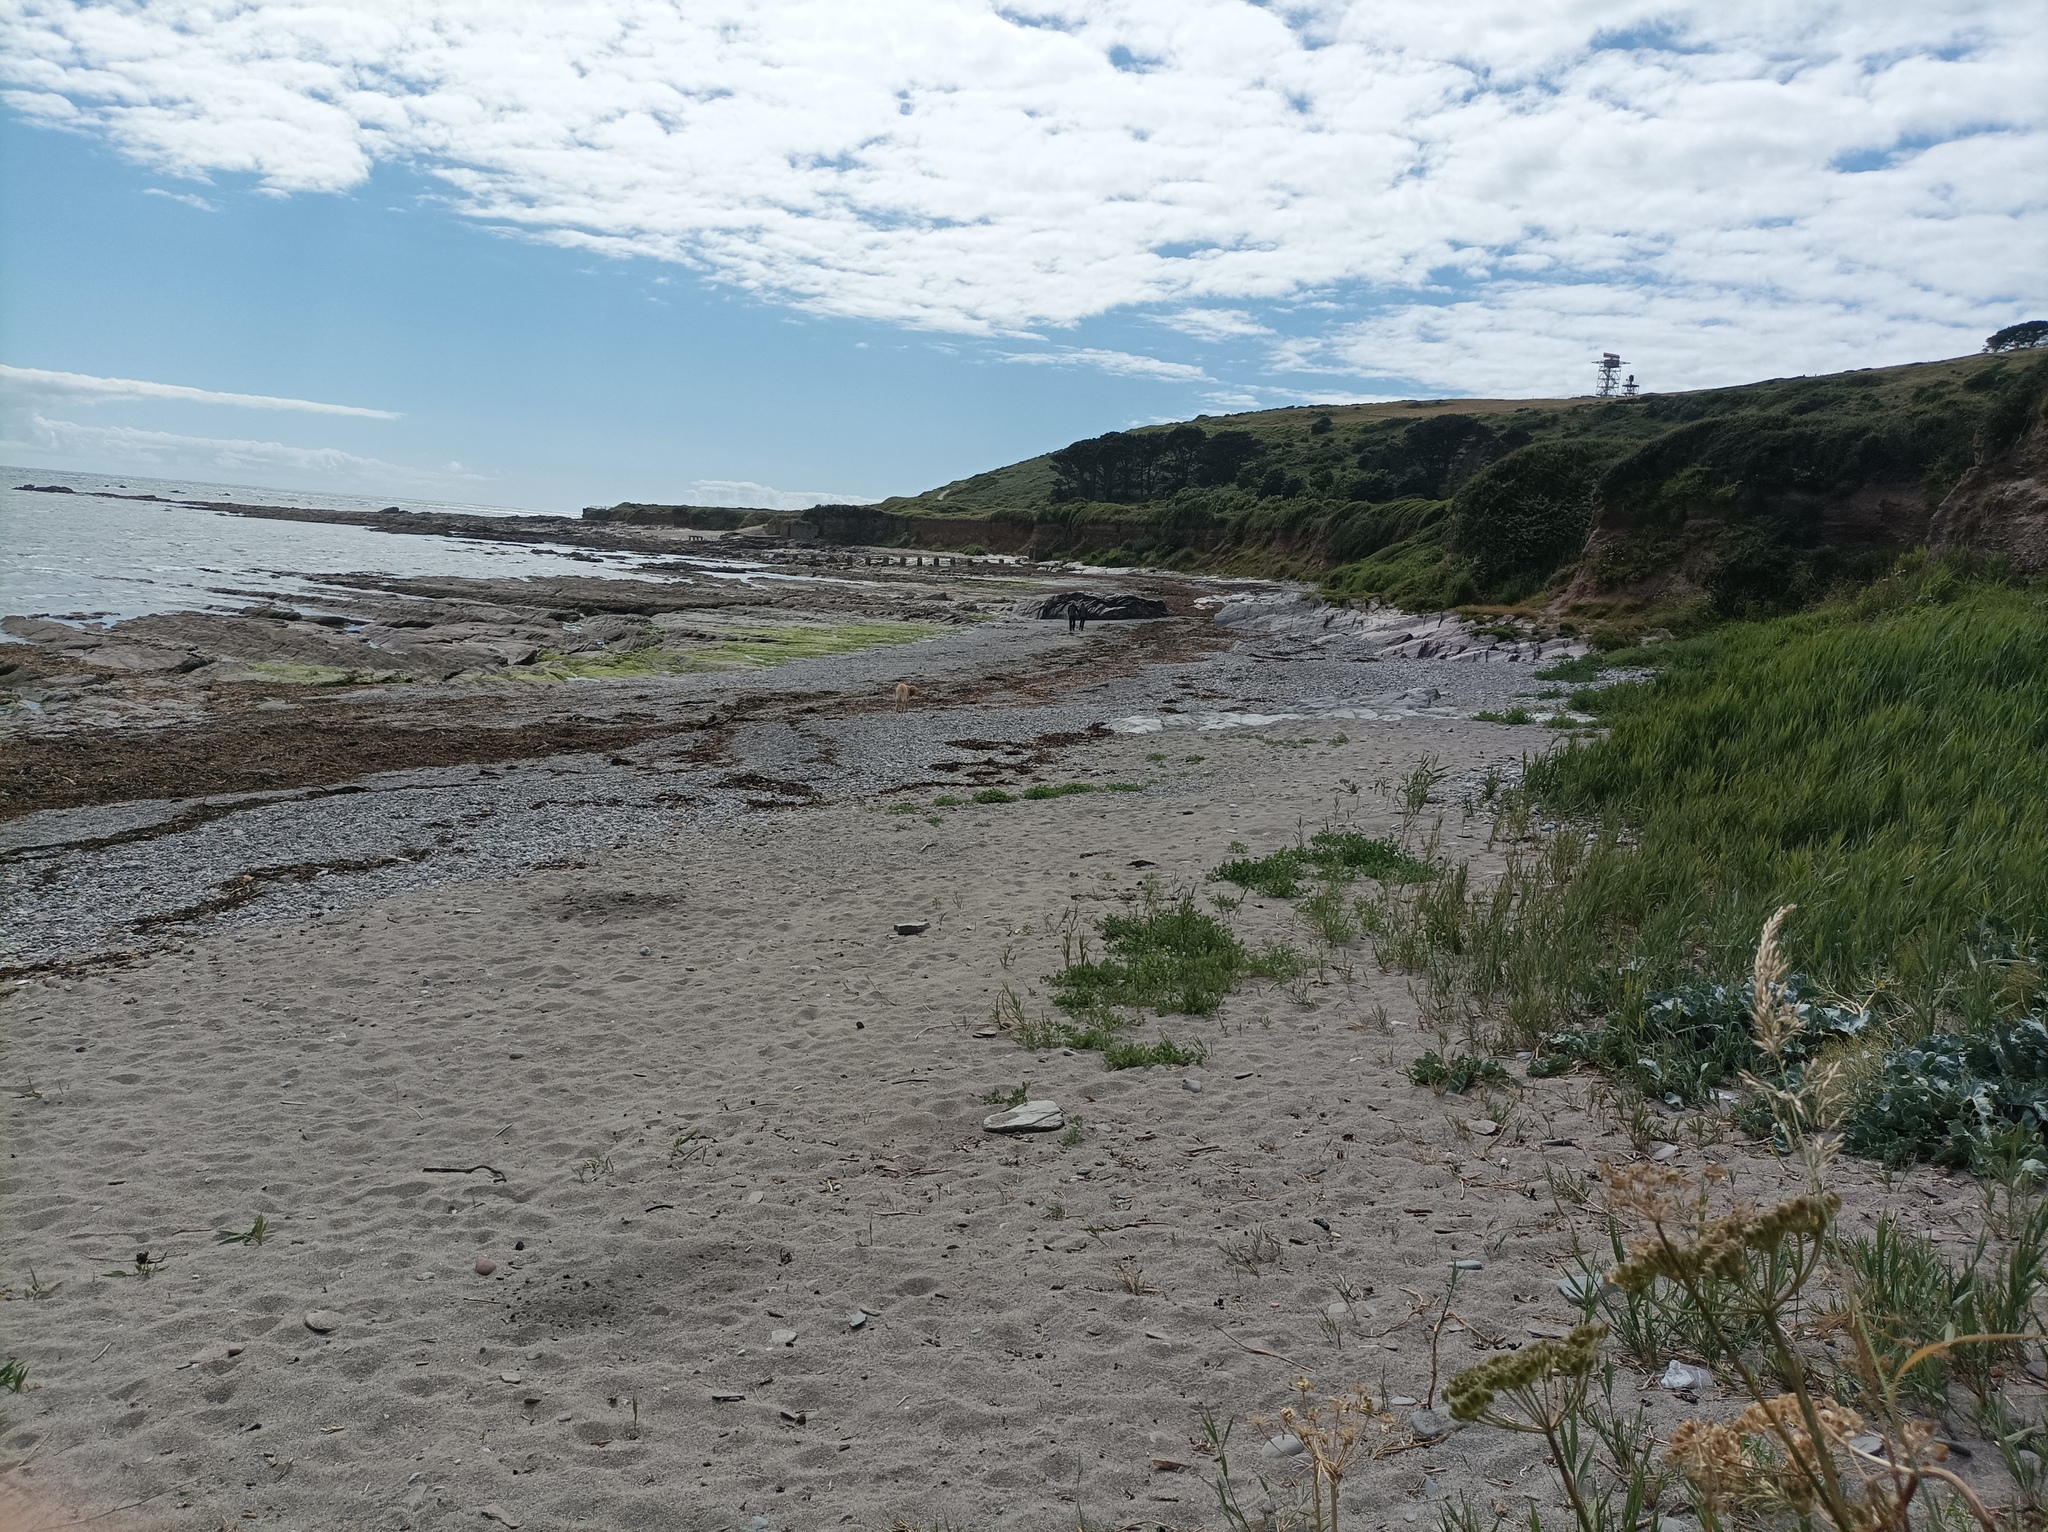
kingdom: Plantae
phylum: Tracheophyta
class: Magnoliopsida
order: Brassicales
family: Brassicaceae
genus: Crambe
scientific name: Crambe maritima
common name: Sea-kale
